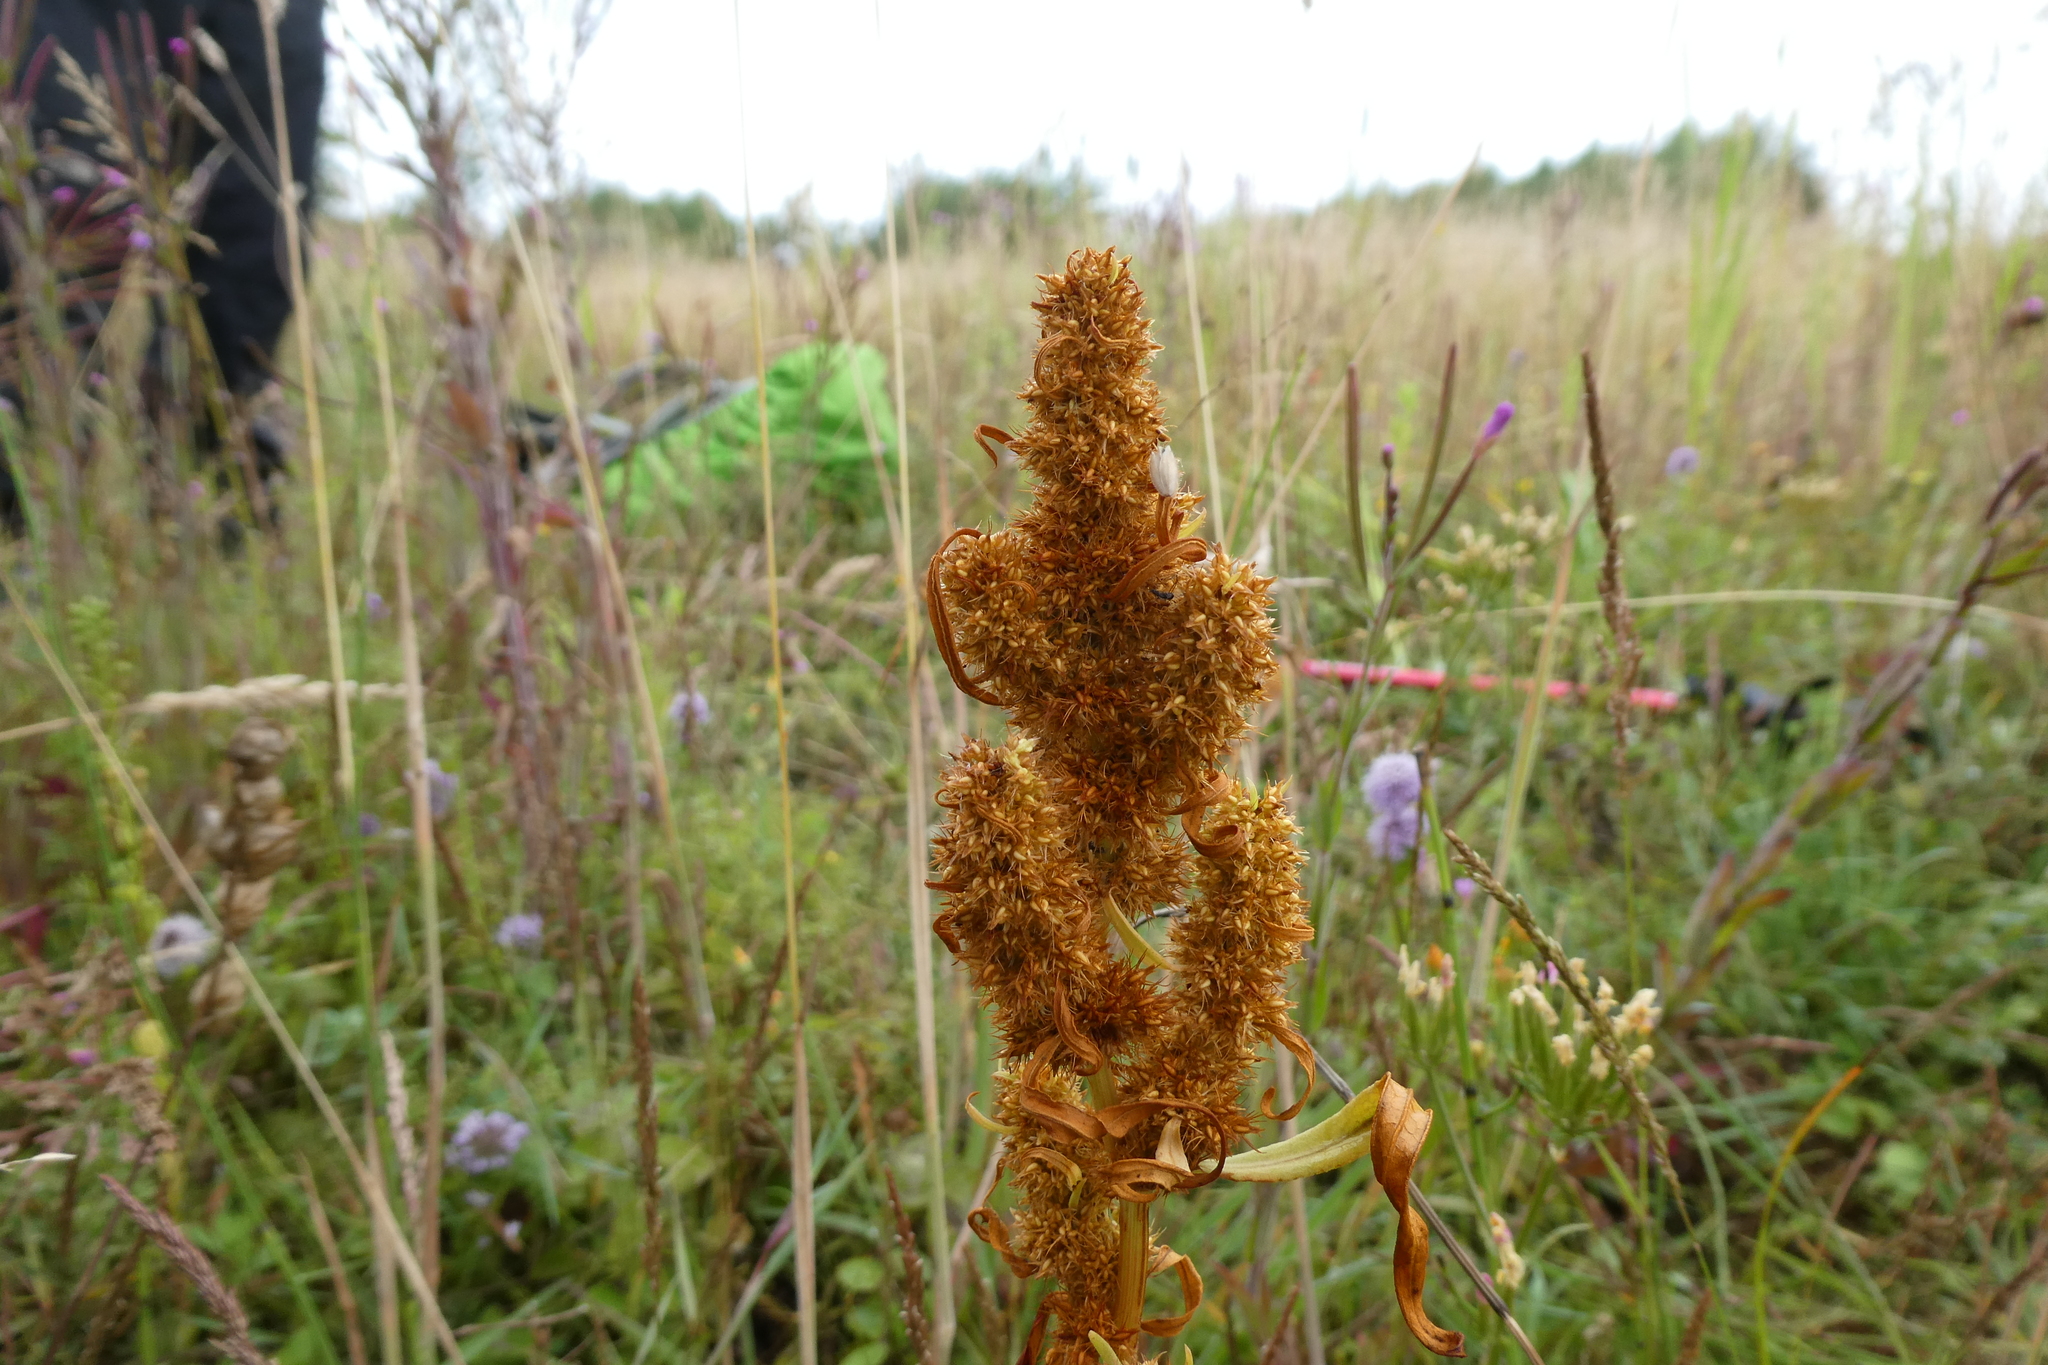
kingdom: Plantae
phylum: Tracheophyta
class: Magnoliopsida
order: Caryophyllales
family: Polygonaceae
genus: Rumex
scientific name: Rumex maritimus
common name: Golden dock
